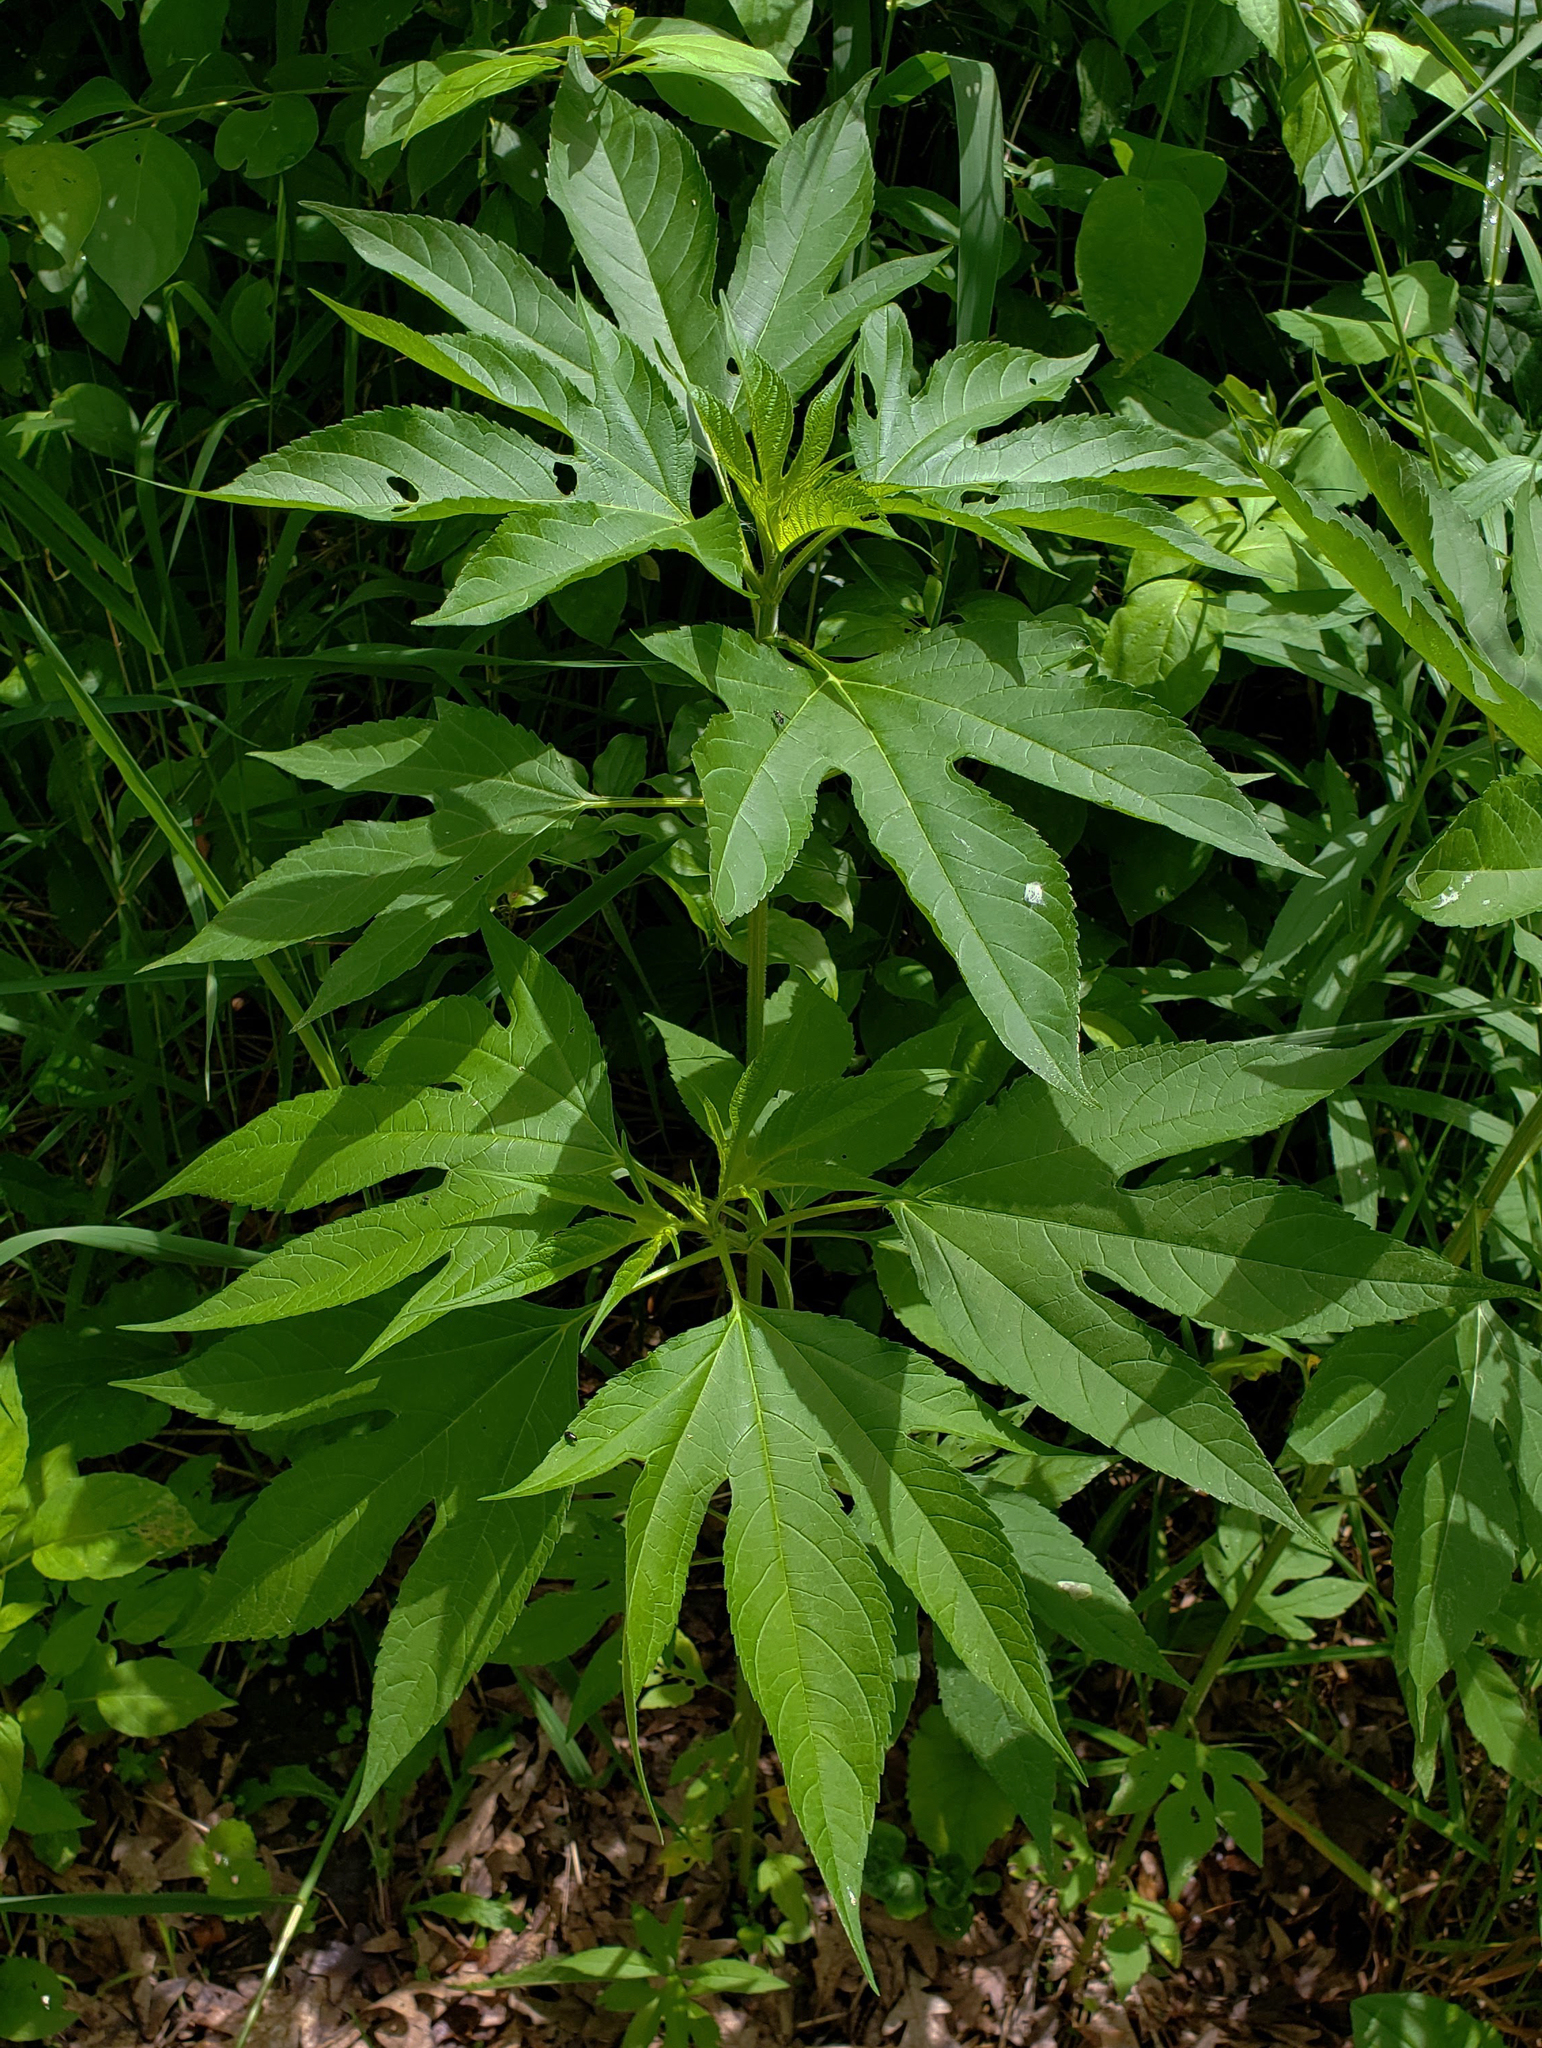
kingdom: Plantae
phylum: Tracheophyta
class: Magnoliopsida
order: Asterales
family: Asteraceae
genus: Ambrosia
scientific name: Ambrosia trifida
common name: Giant ragweed
